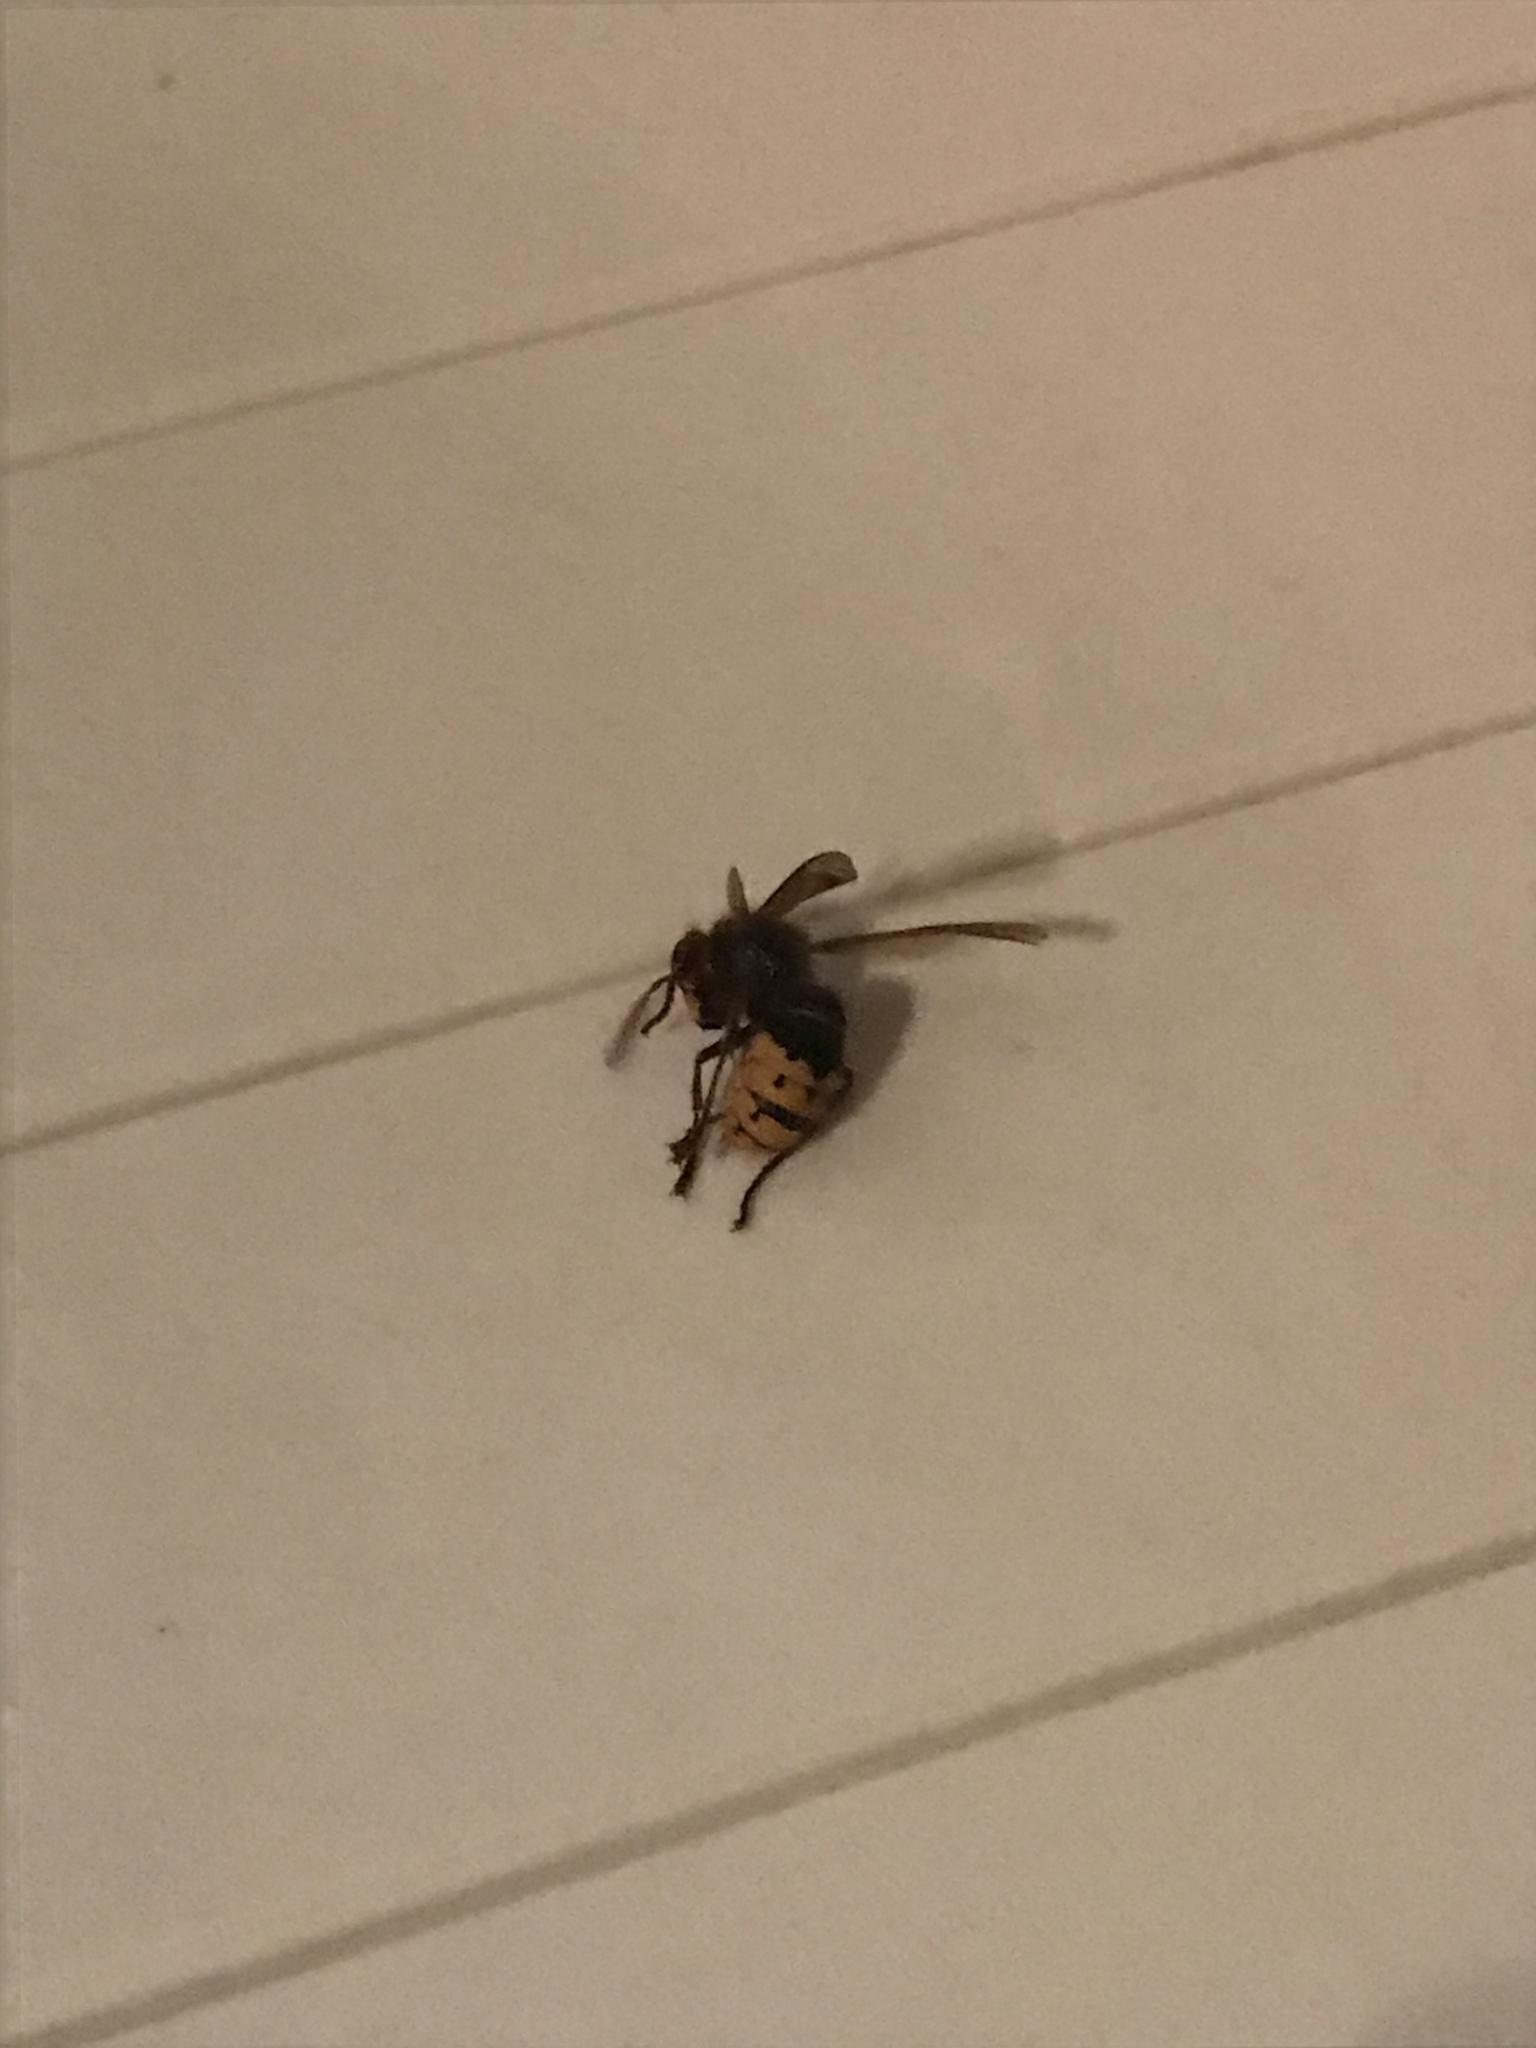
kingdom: Animalia
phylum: Arthropoda
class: Insecta
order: Hymenoptera
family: Vespidae
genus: Vespa
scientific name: Vespa crabro
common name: Hornet
